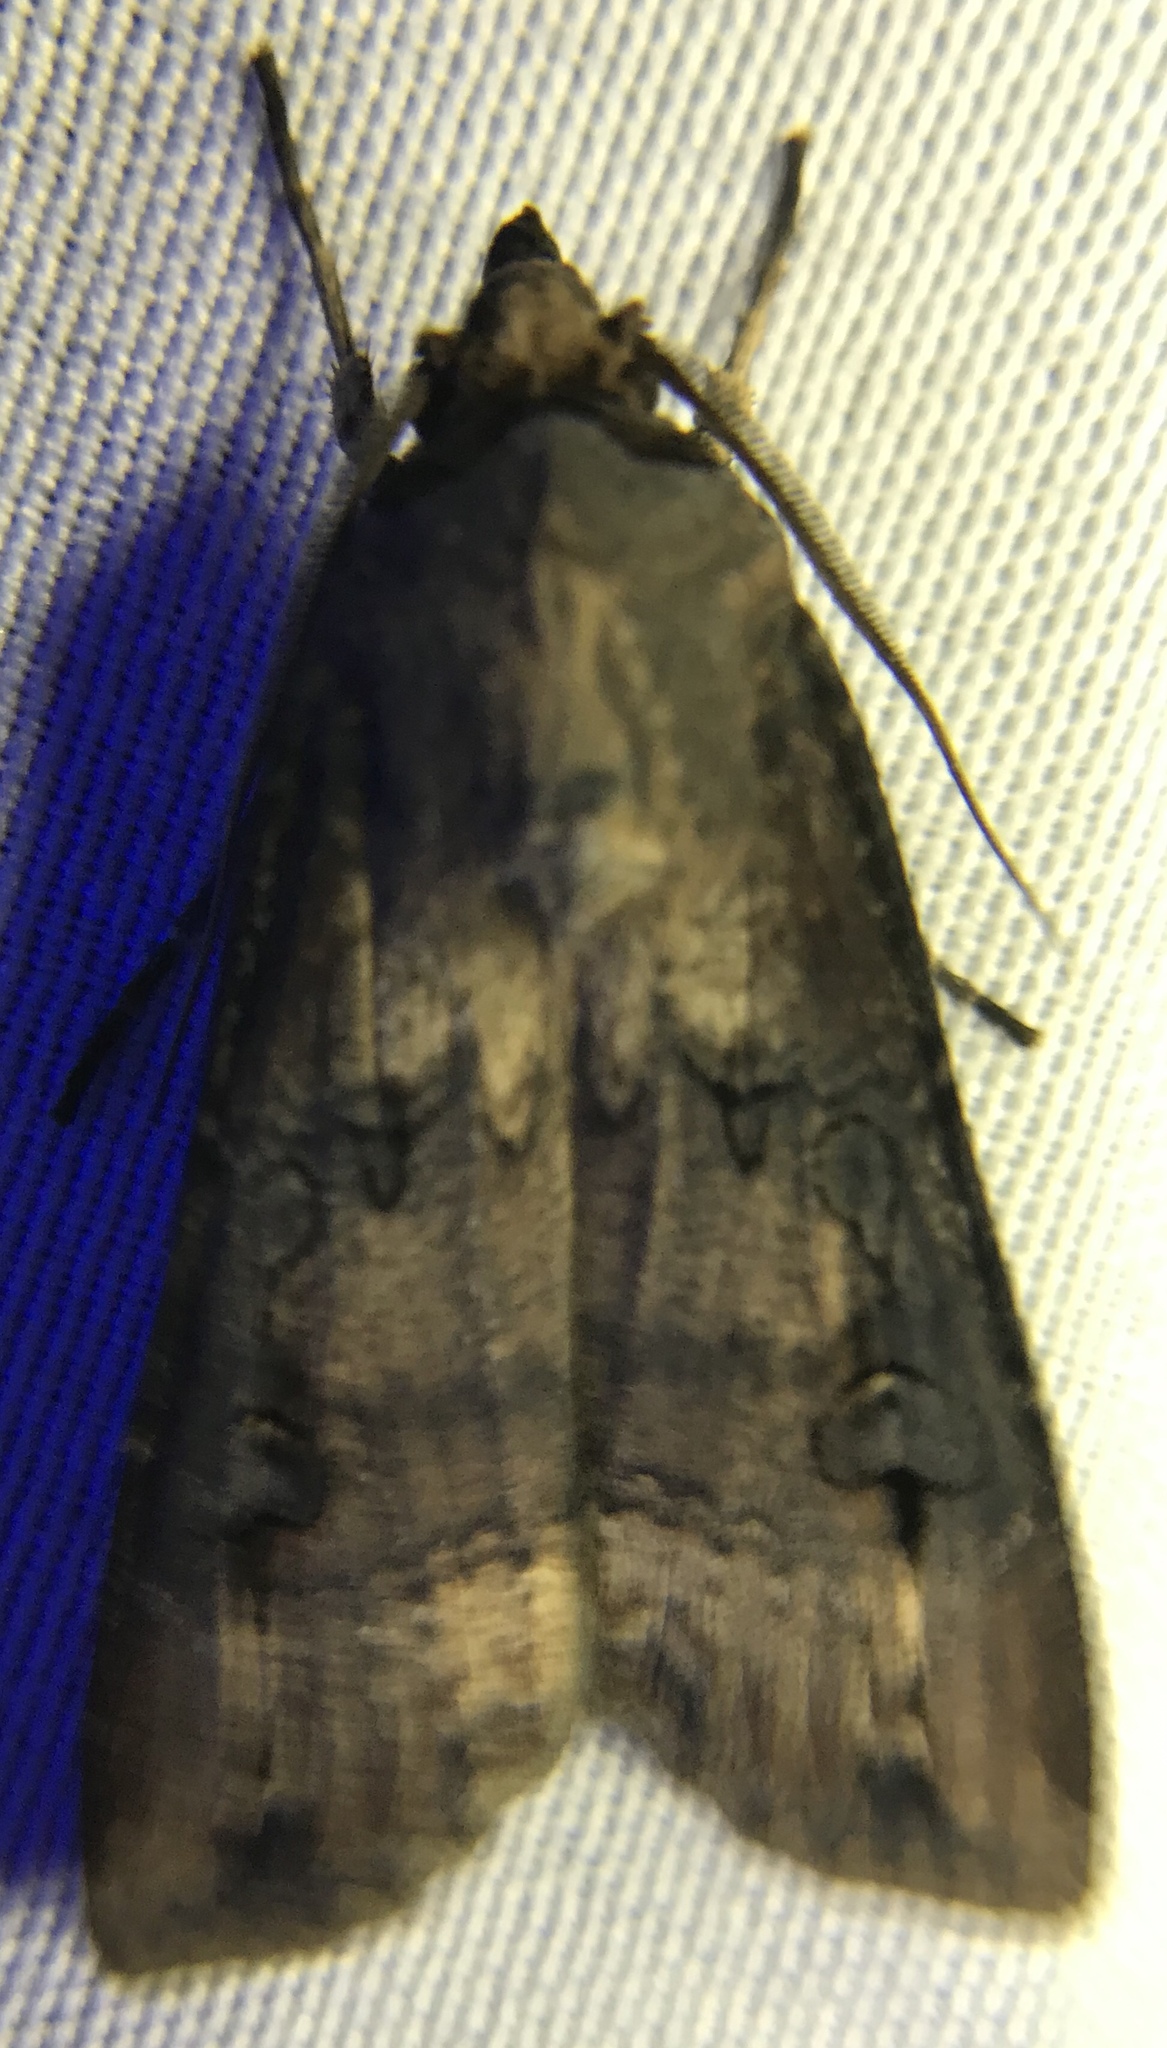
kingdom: Animalia
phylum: Arthropoda
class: Insecta
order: Lepidoptera
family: Noctuidae
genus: Agrotis
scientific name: Agrotis ipsilon
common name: Dark sword-grass
